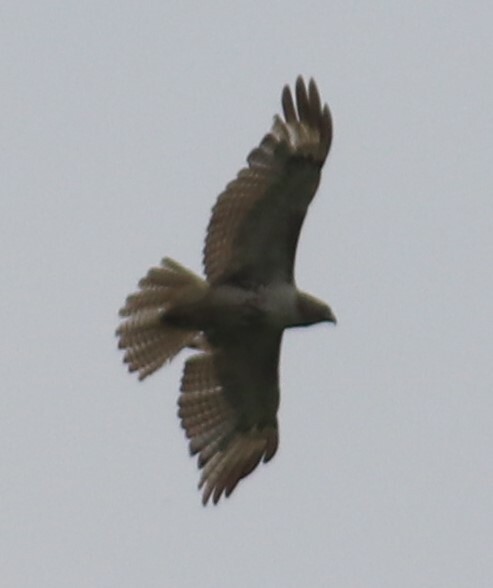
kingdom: Animalia
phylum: Chordata
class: Aves
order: Accipitriformes
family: Accipitridae
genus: Buteo
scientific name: Buteo jamaicensis
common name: Red-tailed hawk
